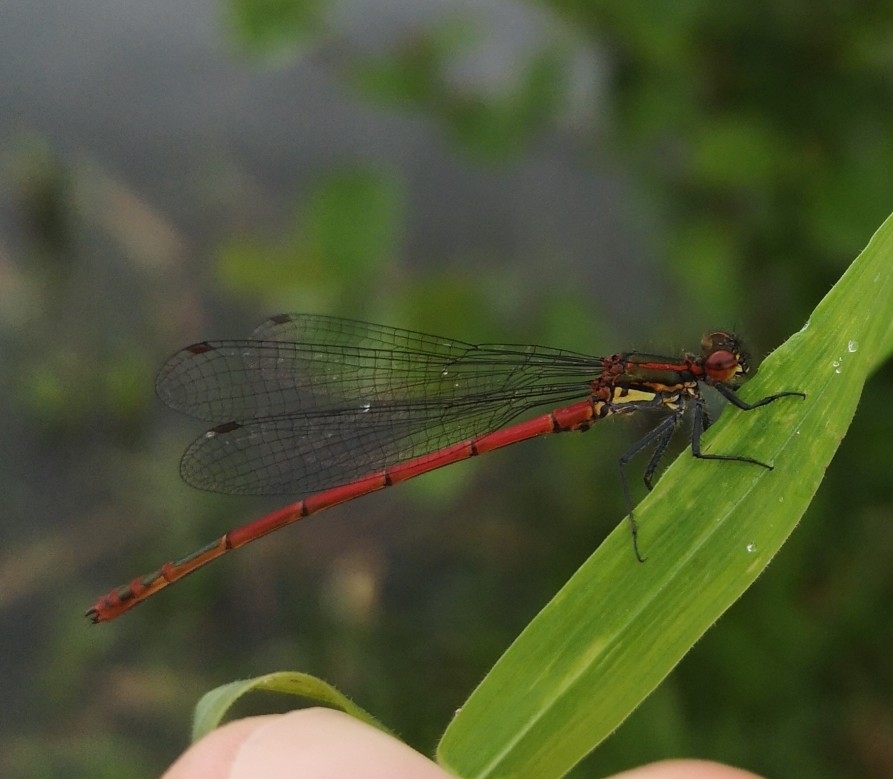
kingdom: Animalia
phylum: Arthropoda
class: Insecta
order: Odonata
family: Coenagrionidae
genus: Pyrrhosoma
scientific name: Pyrrhosoma nymphula
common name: Large red damsel
